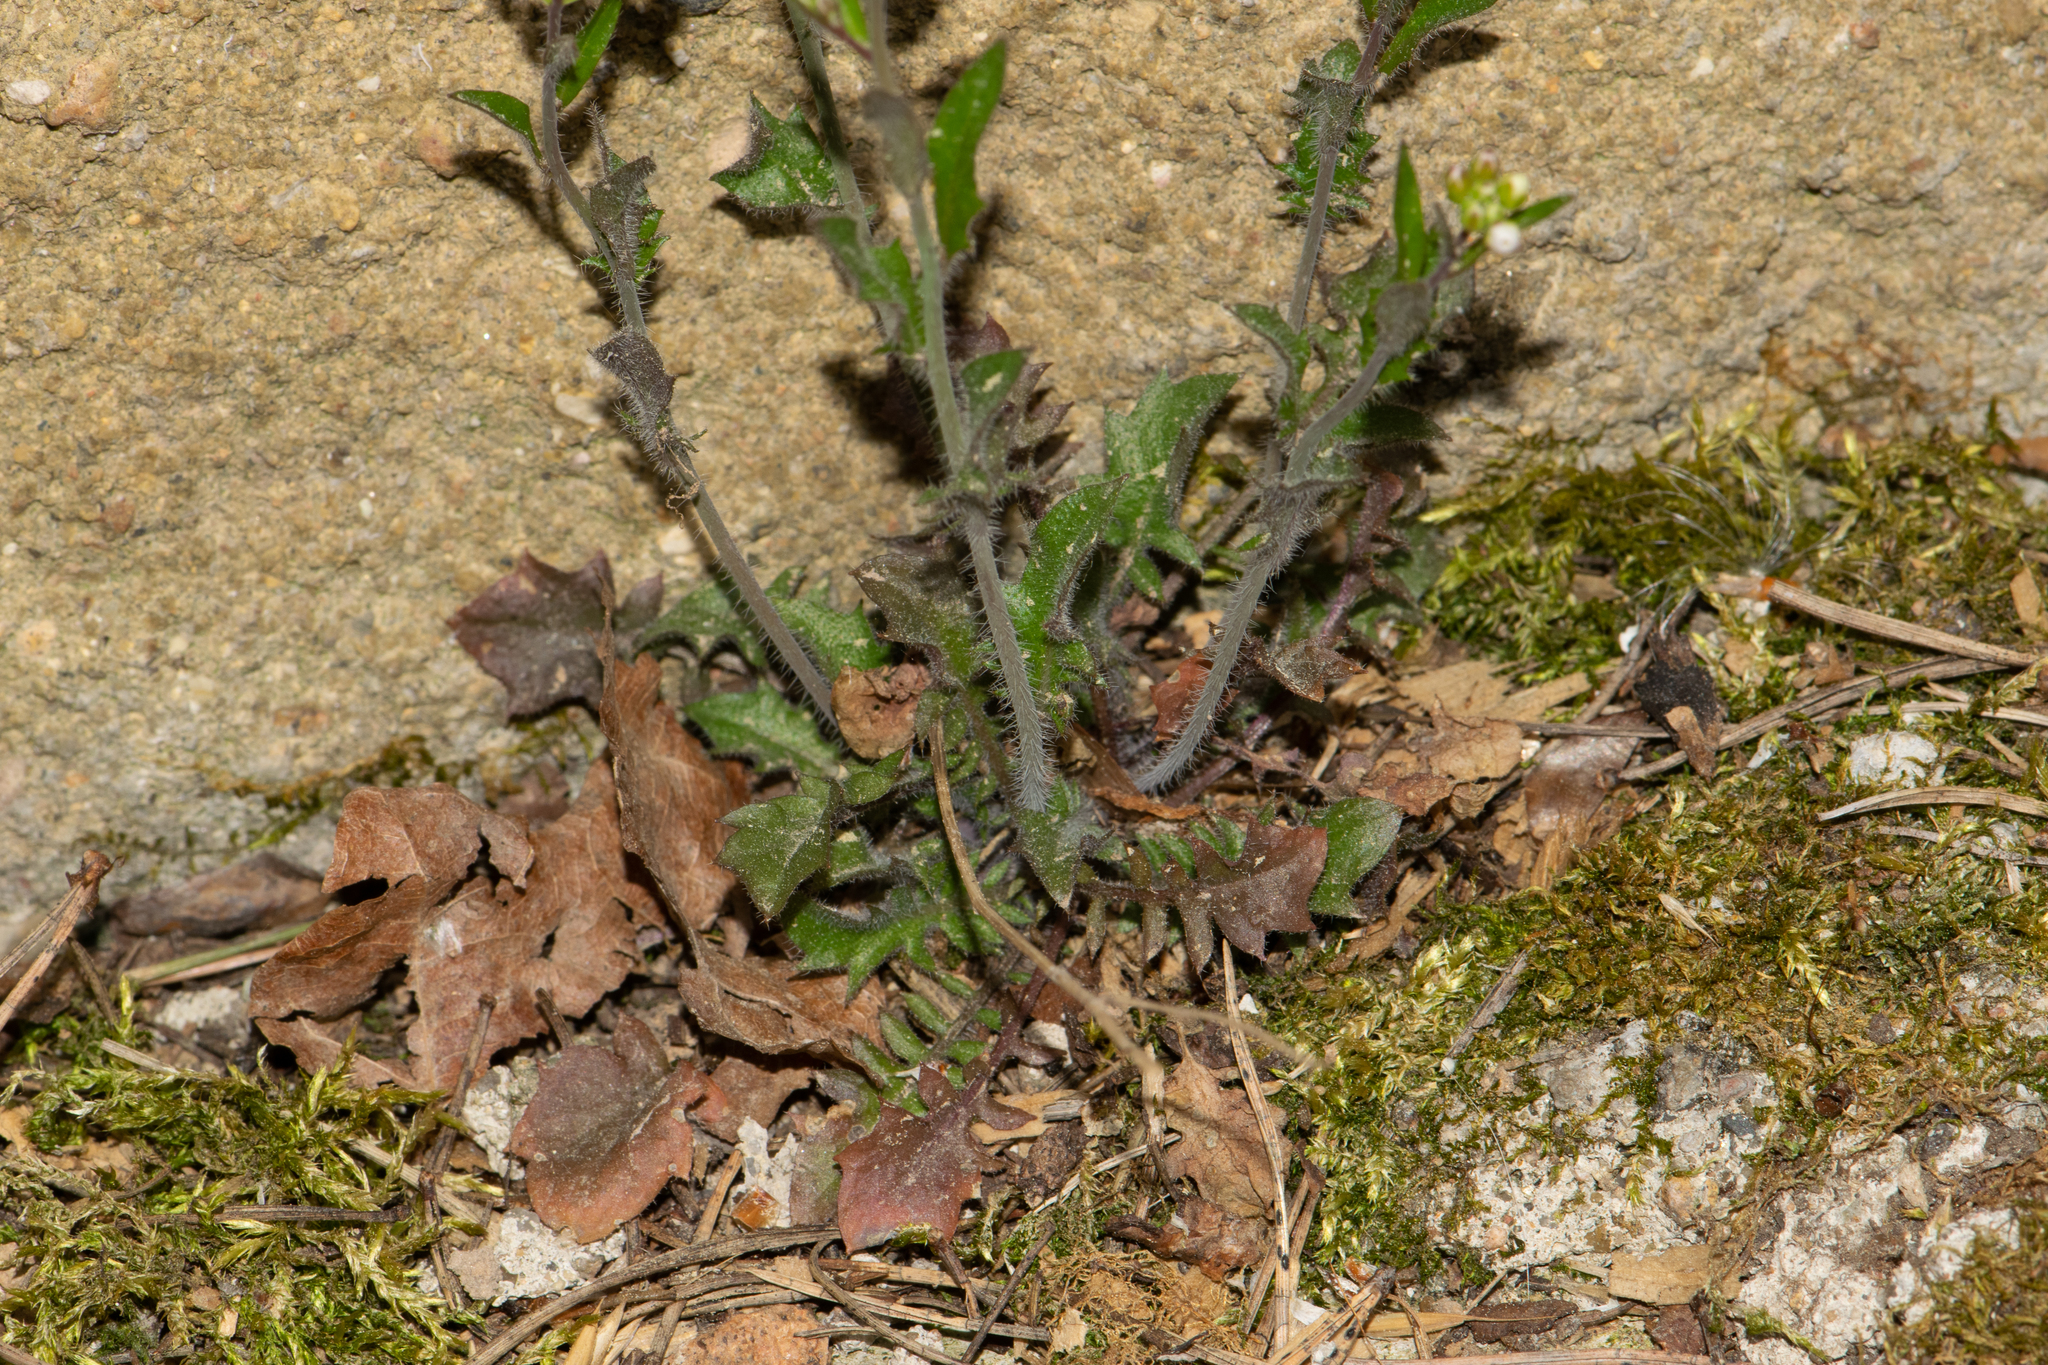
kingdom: Plantae
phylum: Tracheophyta
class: Magnoliopsida
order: Brassicales
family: Brassicaceae
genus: Arabidopsis
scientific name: Arabidopsis arenosa
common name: Sand rock-cress
